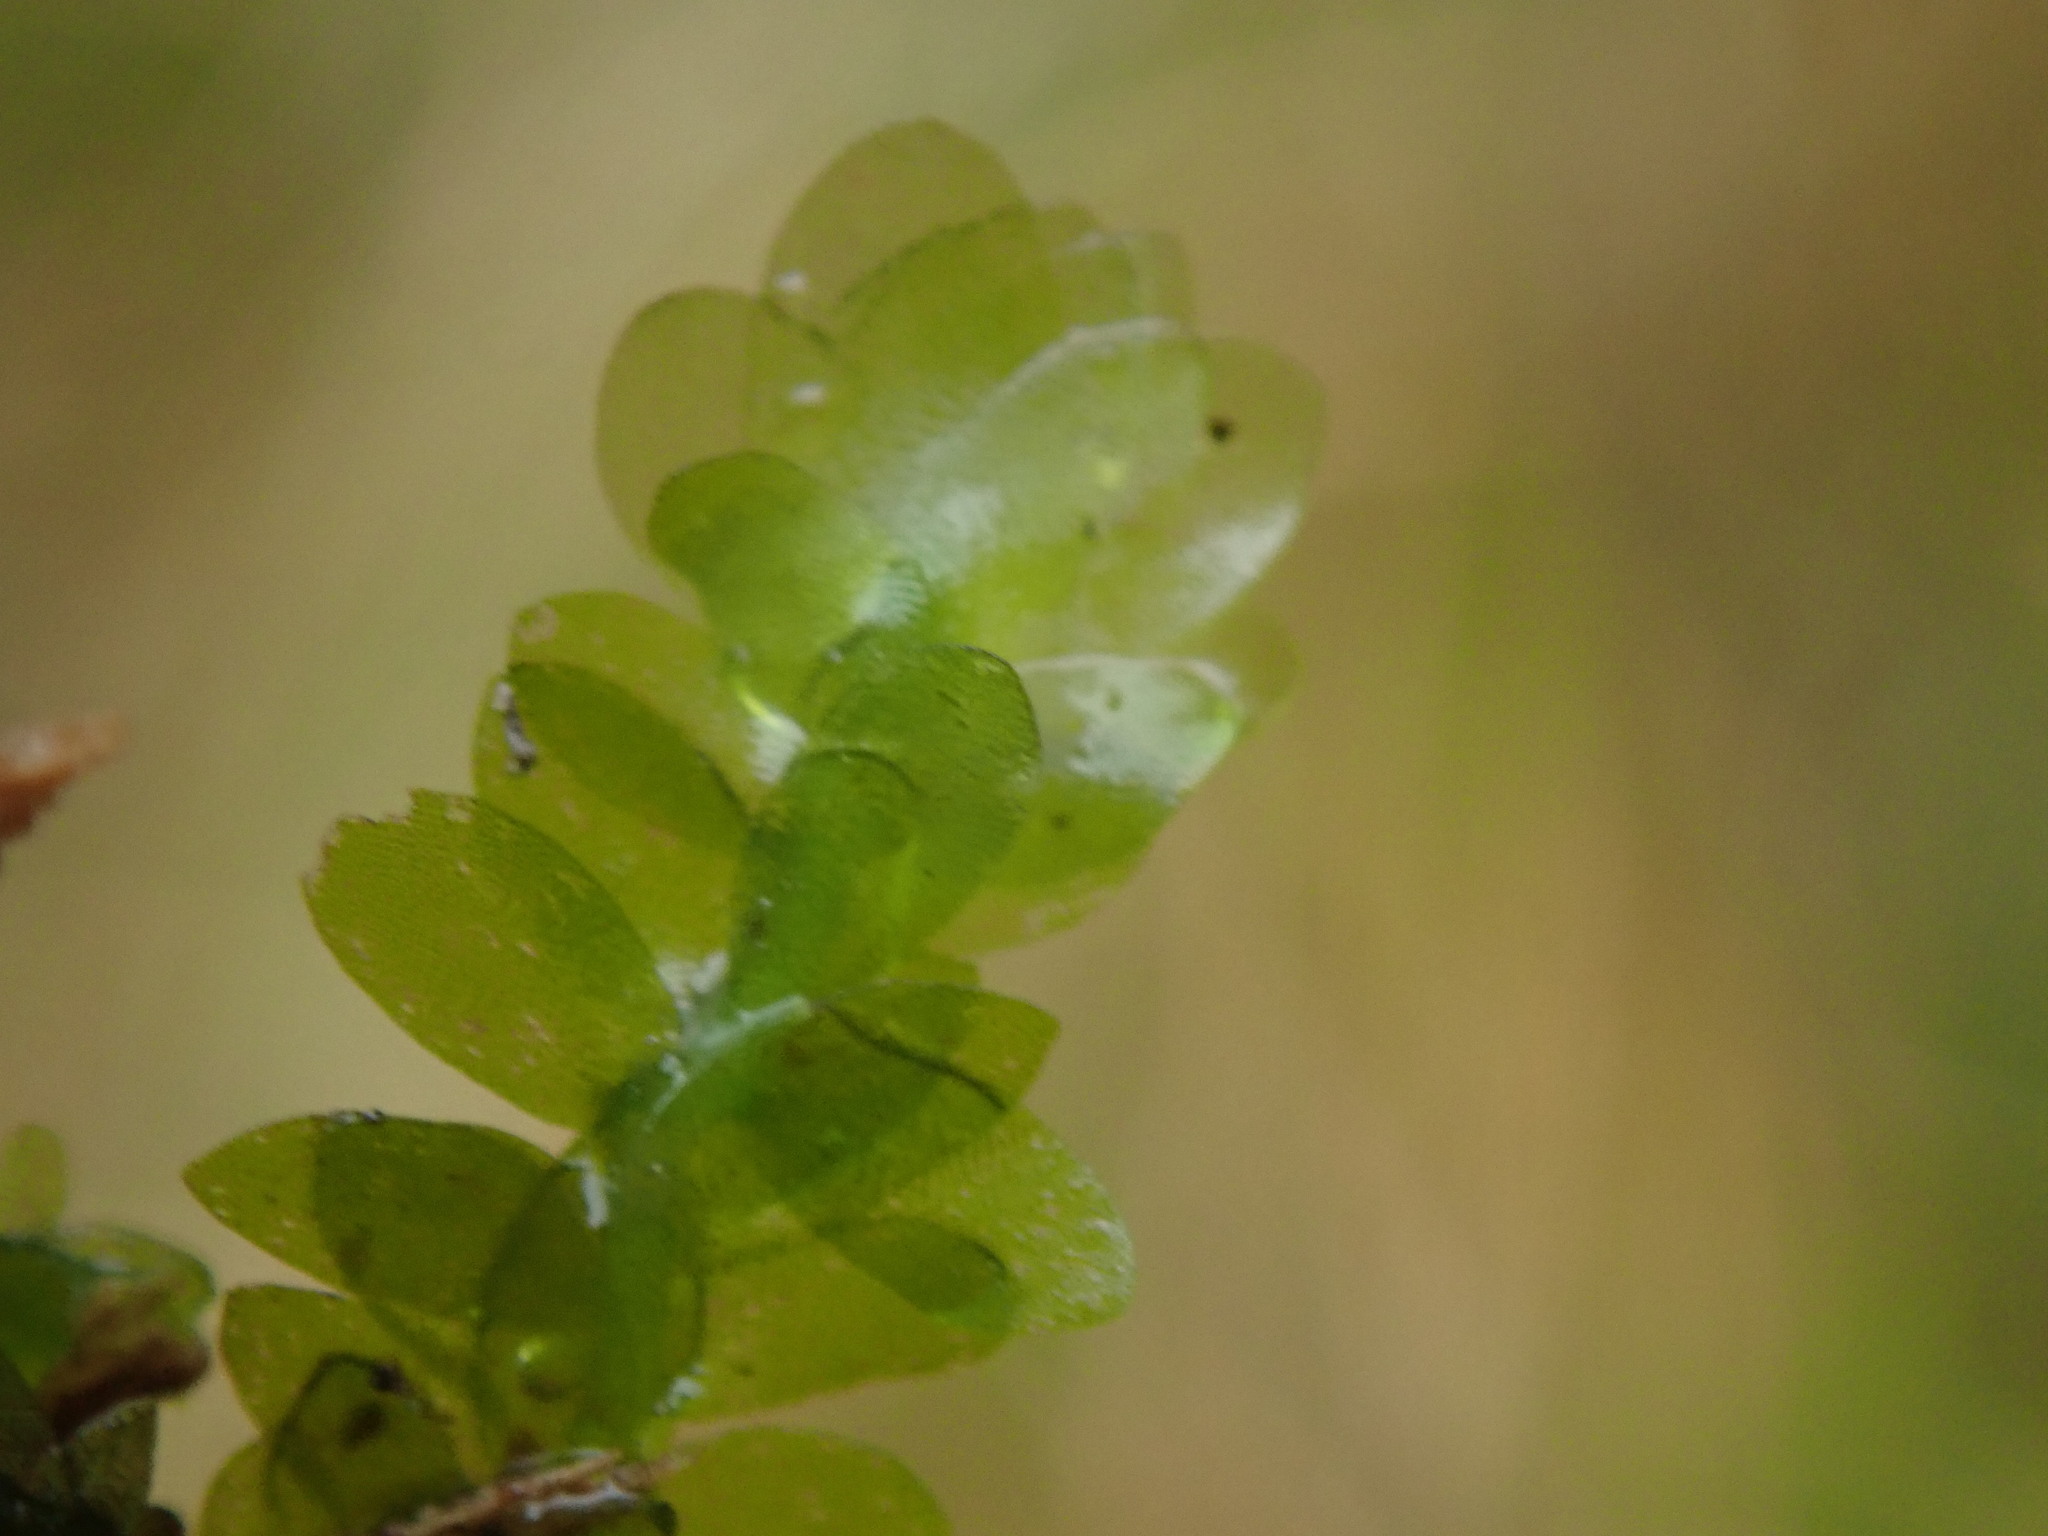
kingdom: Plantae
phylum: Bryophyta
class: Bryopsida
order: Hookeriales
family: Hookeriaceae
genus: Hookeria
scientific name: Hookeria lucens
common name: Shining hookeria
